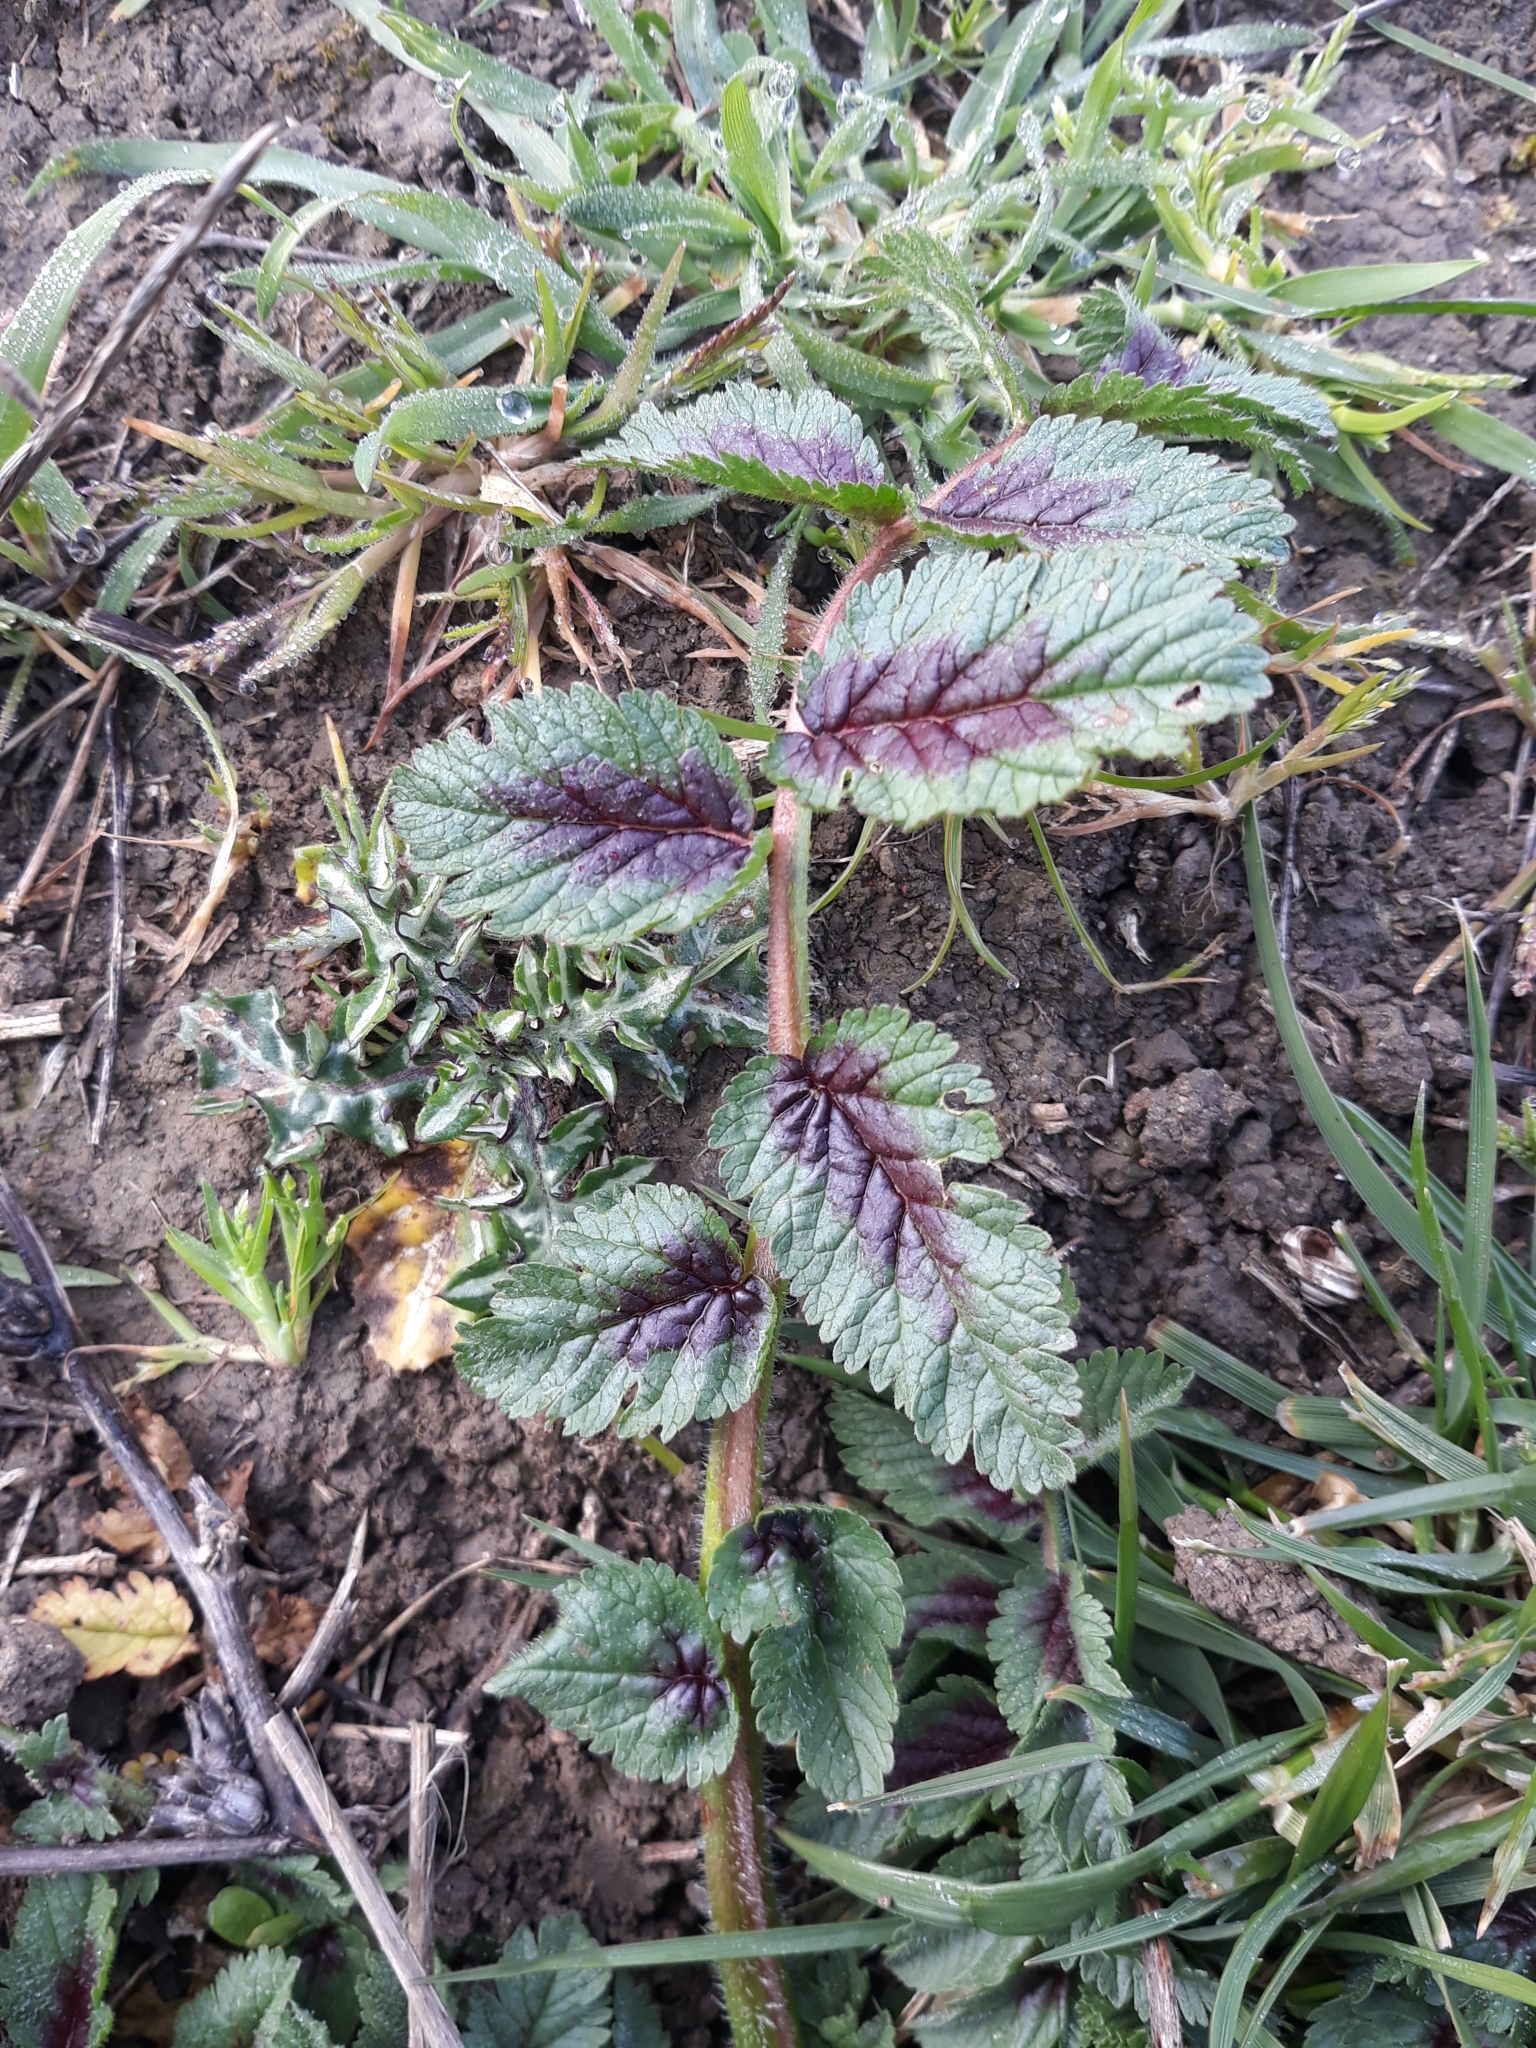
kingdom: Plantae
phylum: Tracheophyta
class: Magnoliopsida
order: Geraniales
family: Geraniaceae
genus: Erodium
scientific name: Erodium moschatum
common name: Musk stork's-bill
